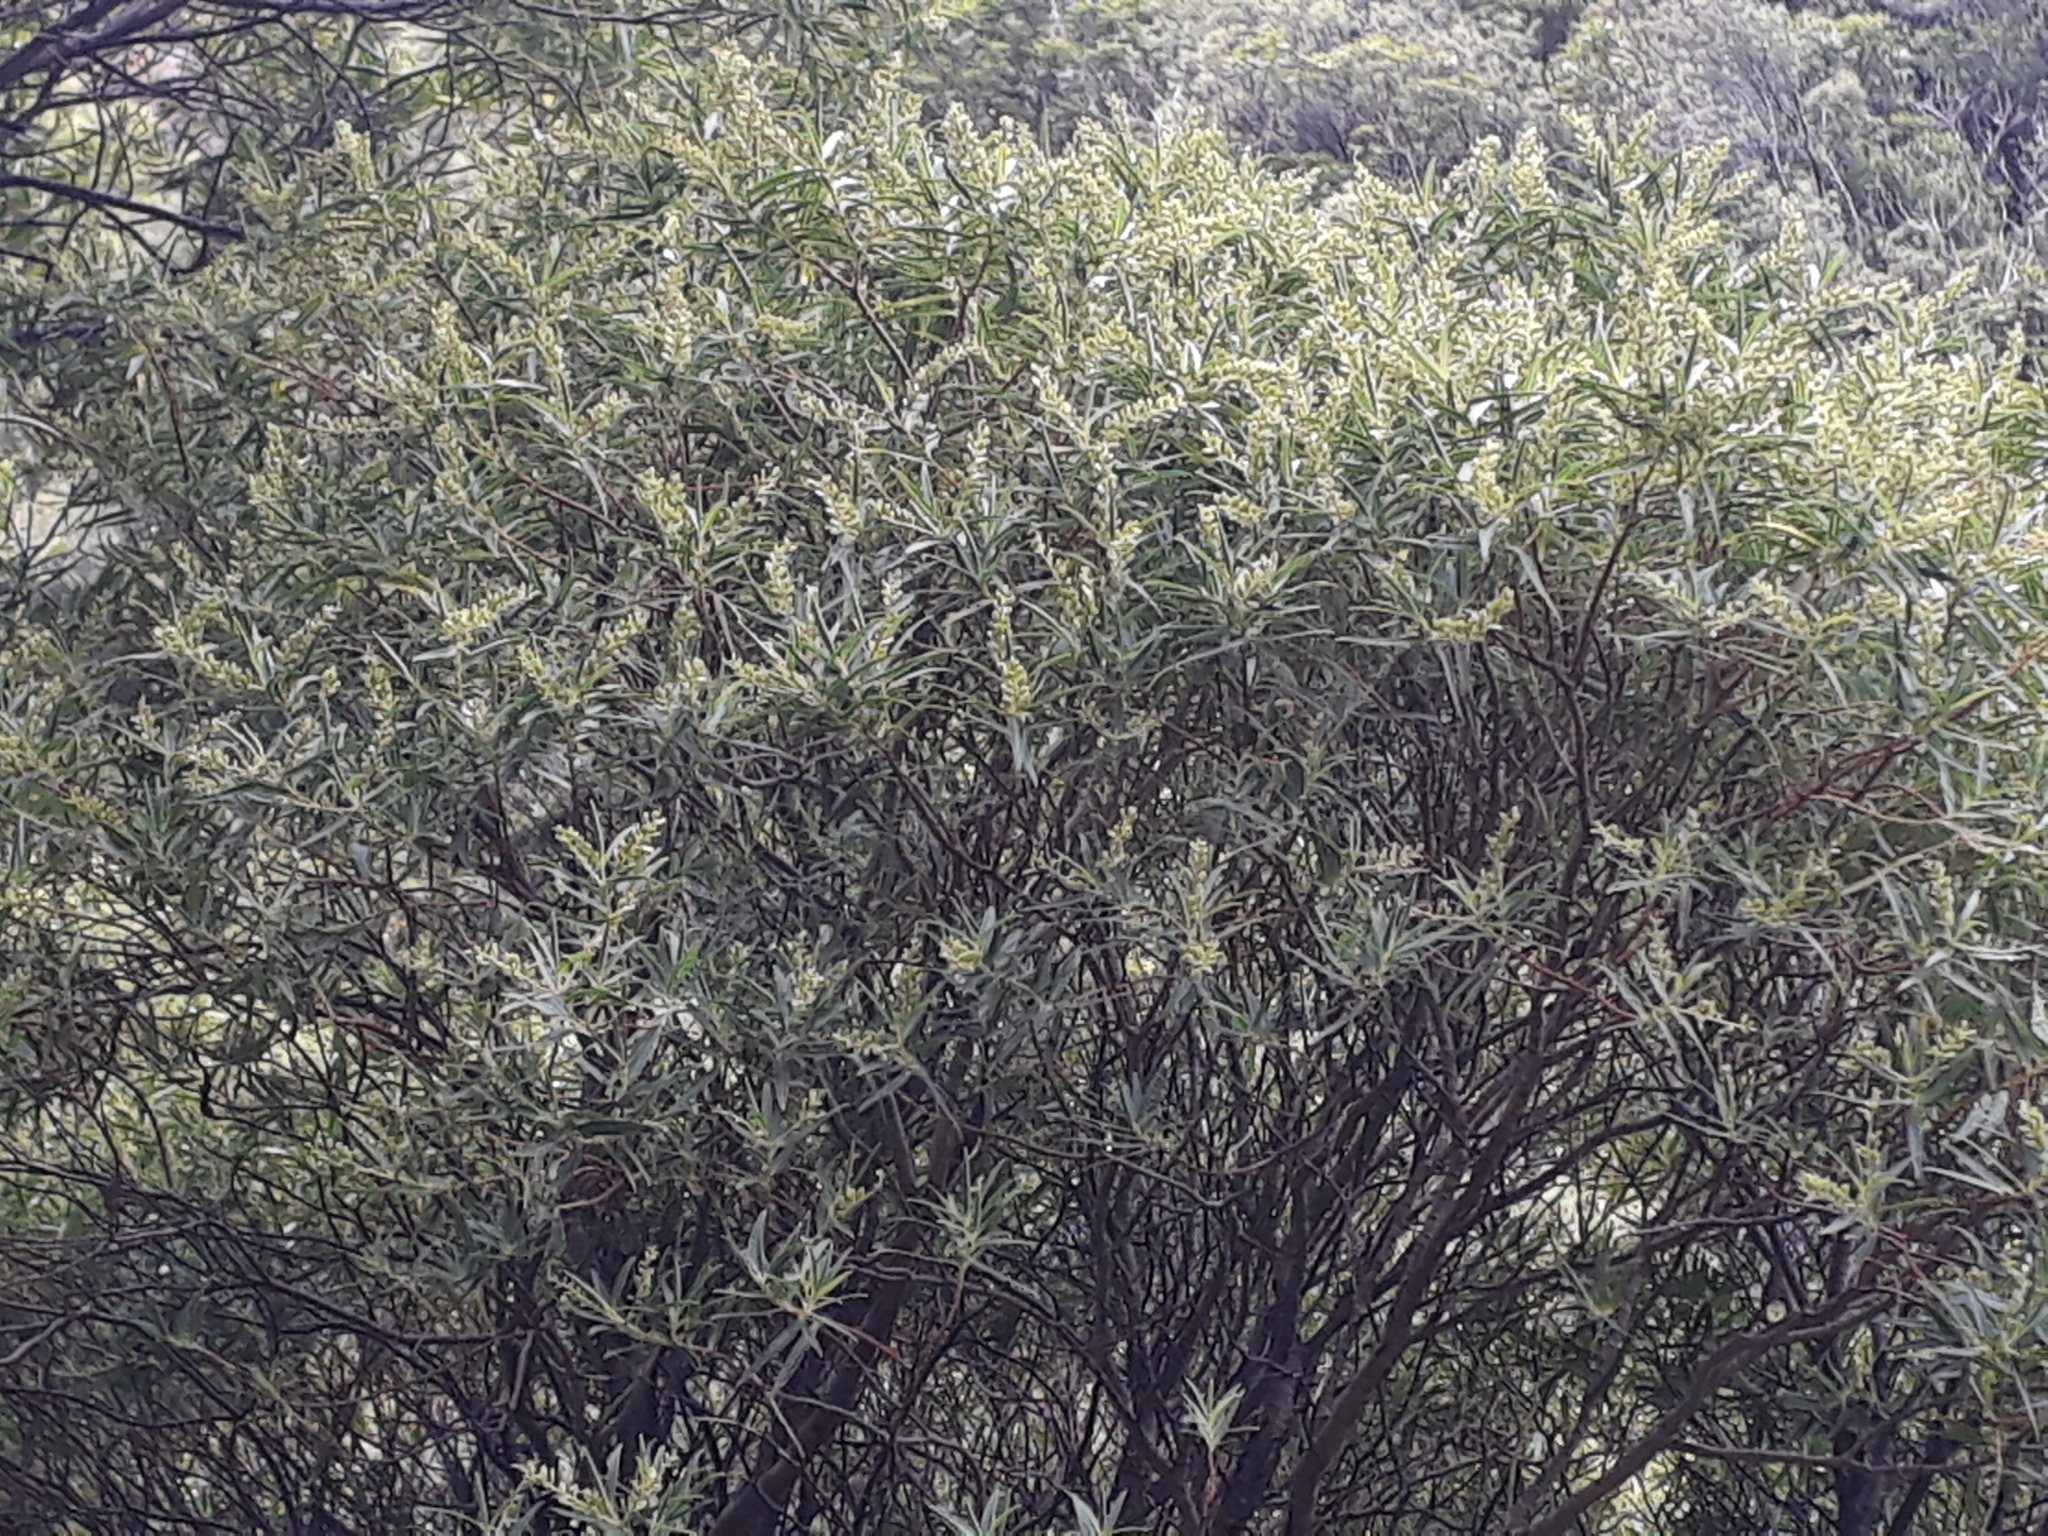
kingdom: Plantae
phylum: Tracheophyta
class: Magnoliopsida
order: Lamiales
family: Plantaginaceae
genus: Veronica
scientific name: Veronica parviflora
